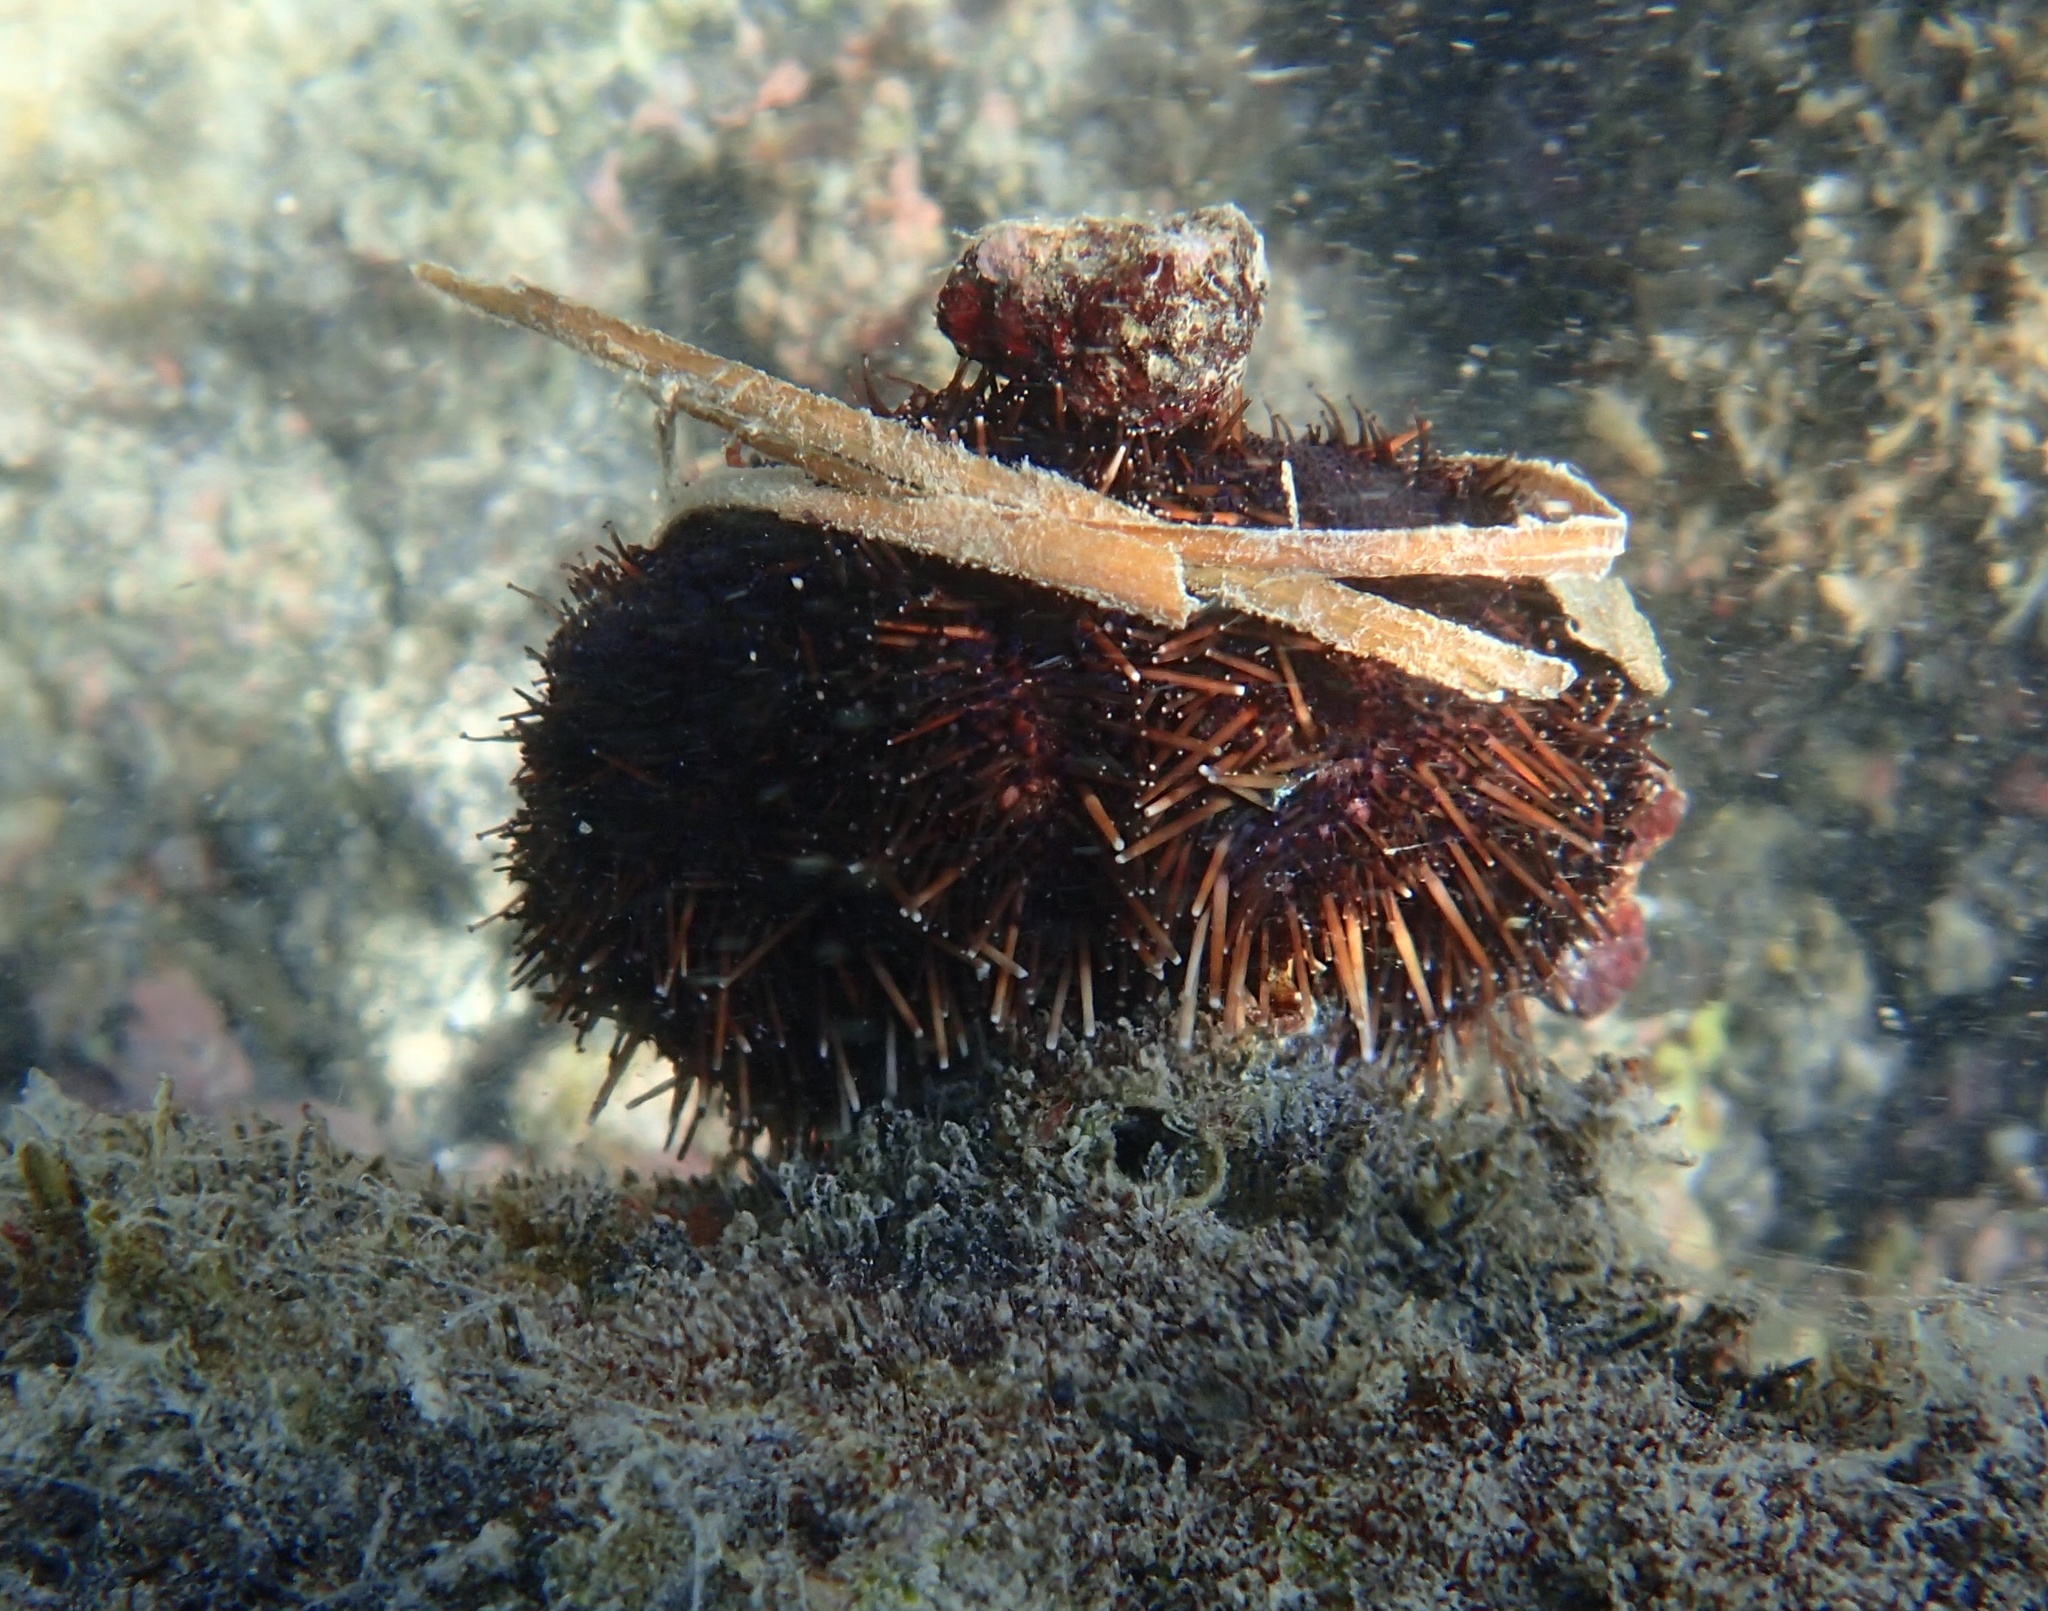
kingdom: Animalia
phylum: Echinodermata
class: Echinoidea
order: Camarodonta
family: Toxopneustidae
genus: Tripneustes
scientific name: Tripneustes gratilla
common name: Bischofsmützenseeigel
